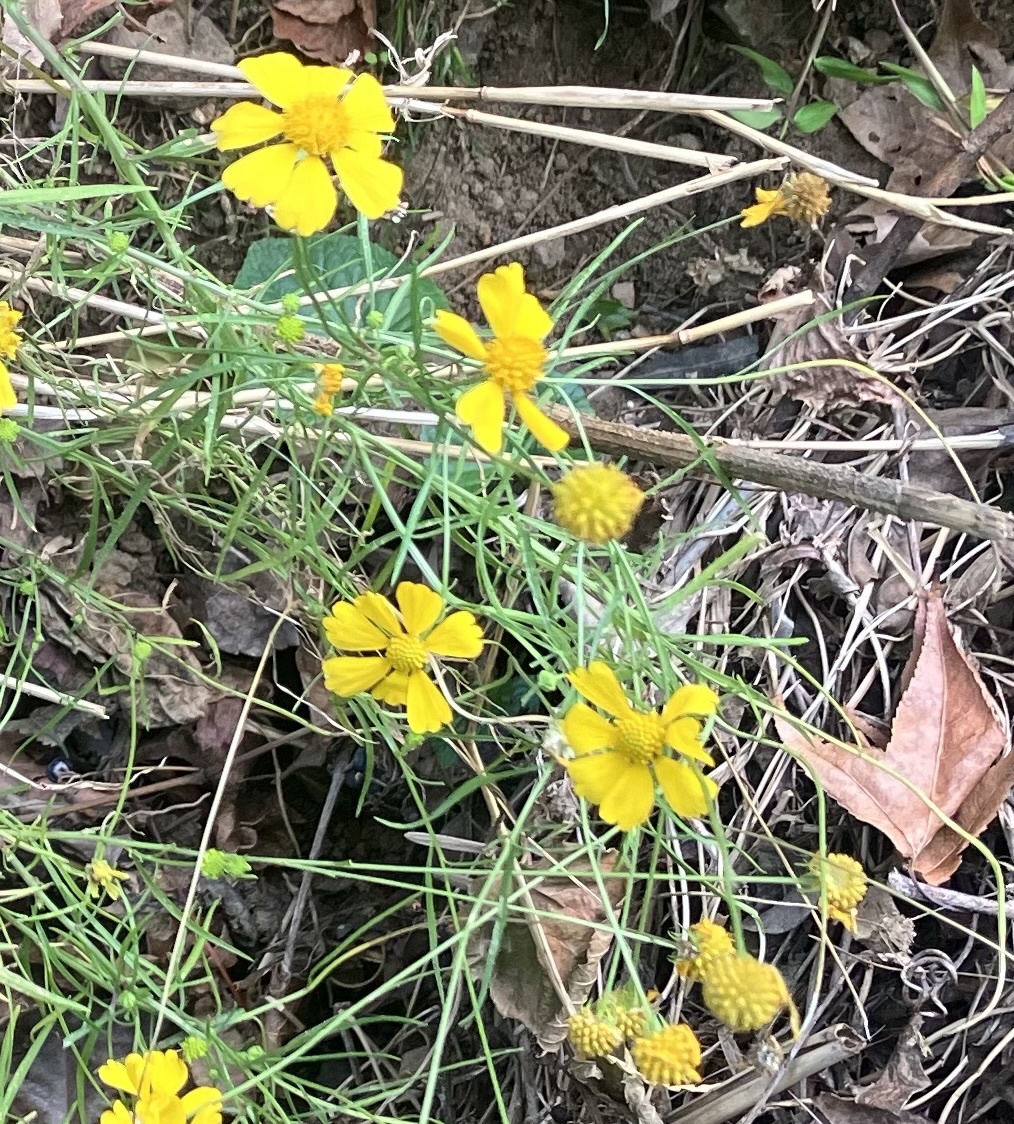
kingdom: Plantae
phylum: Tracheophyta
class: Magnoliopsida
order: Asterales
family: Asteraceae
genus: Helenium
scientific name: Helenium amarum
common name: Bitter sneezeweed
